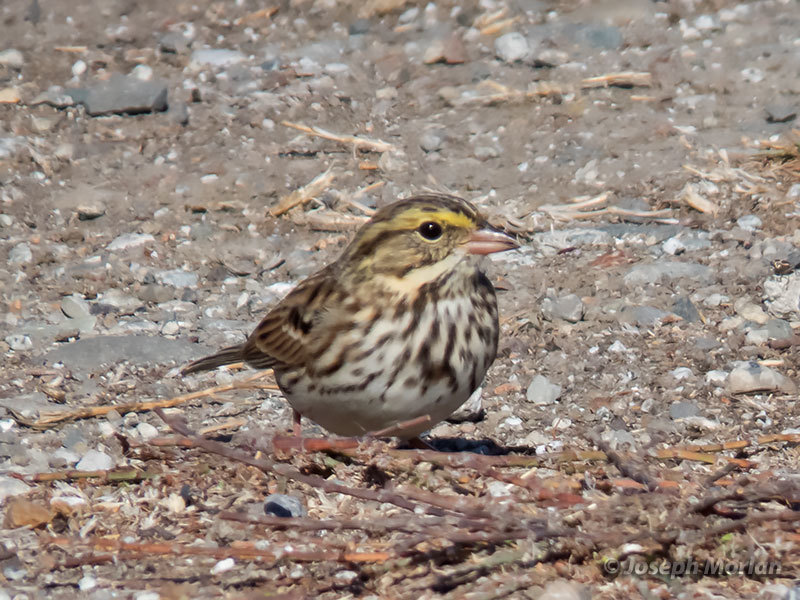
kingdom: Animalia
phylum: Chordata
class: Aves
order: Passeriformes
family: Passerellidae
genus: Passerculus
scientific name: Passerculus sandwichensis
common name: Savannah sparrow
